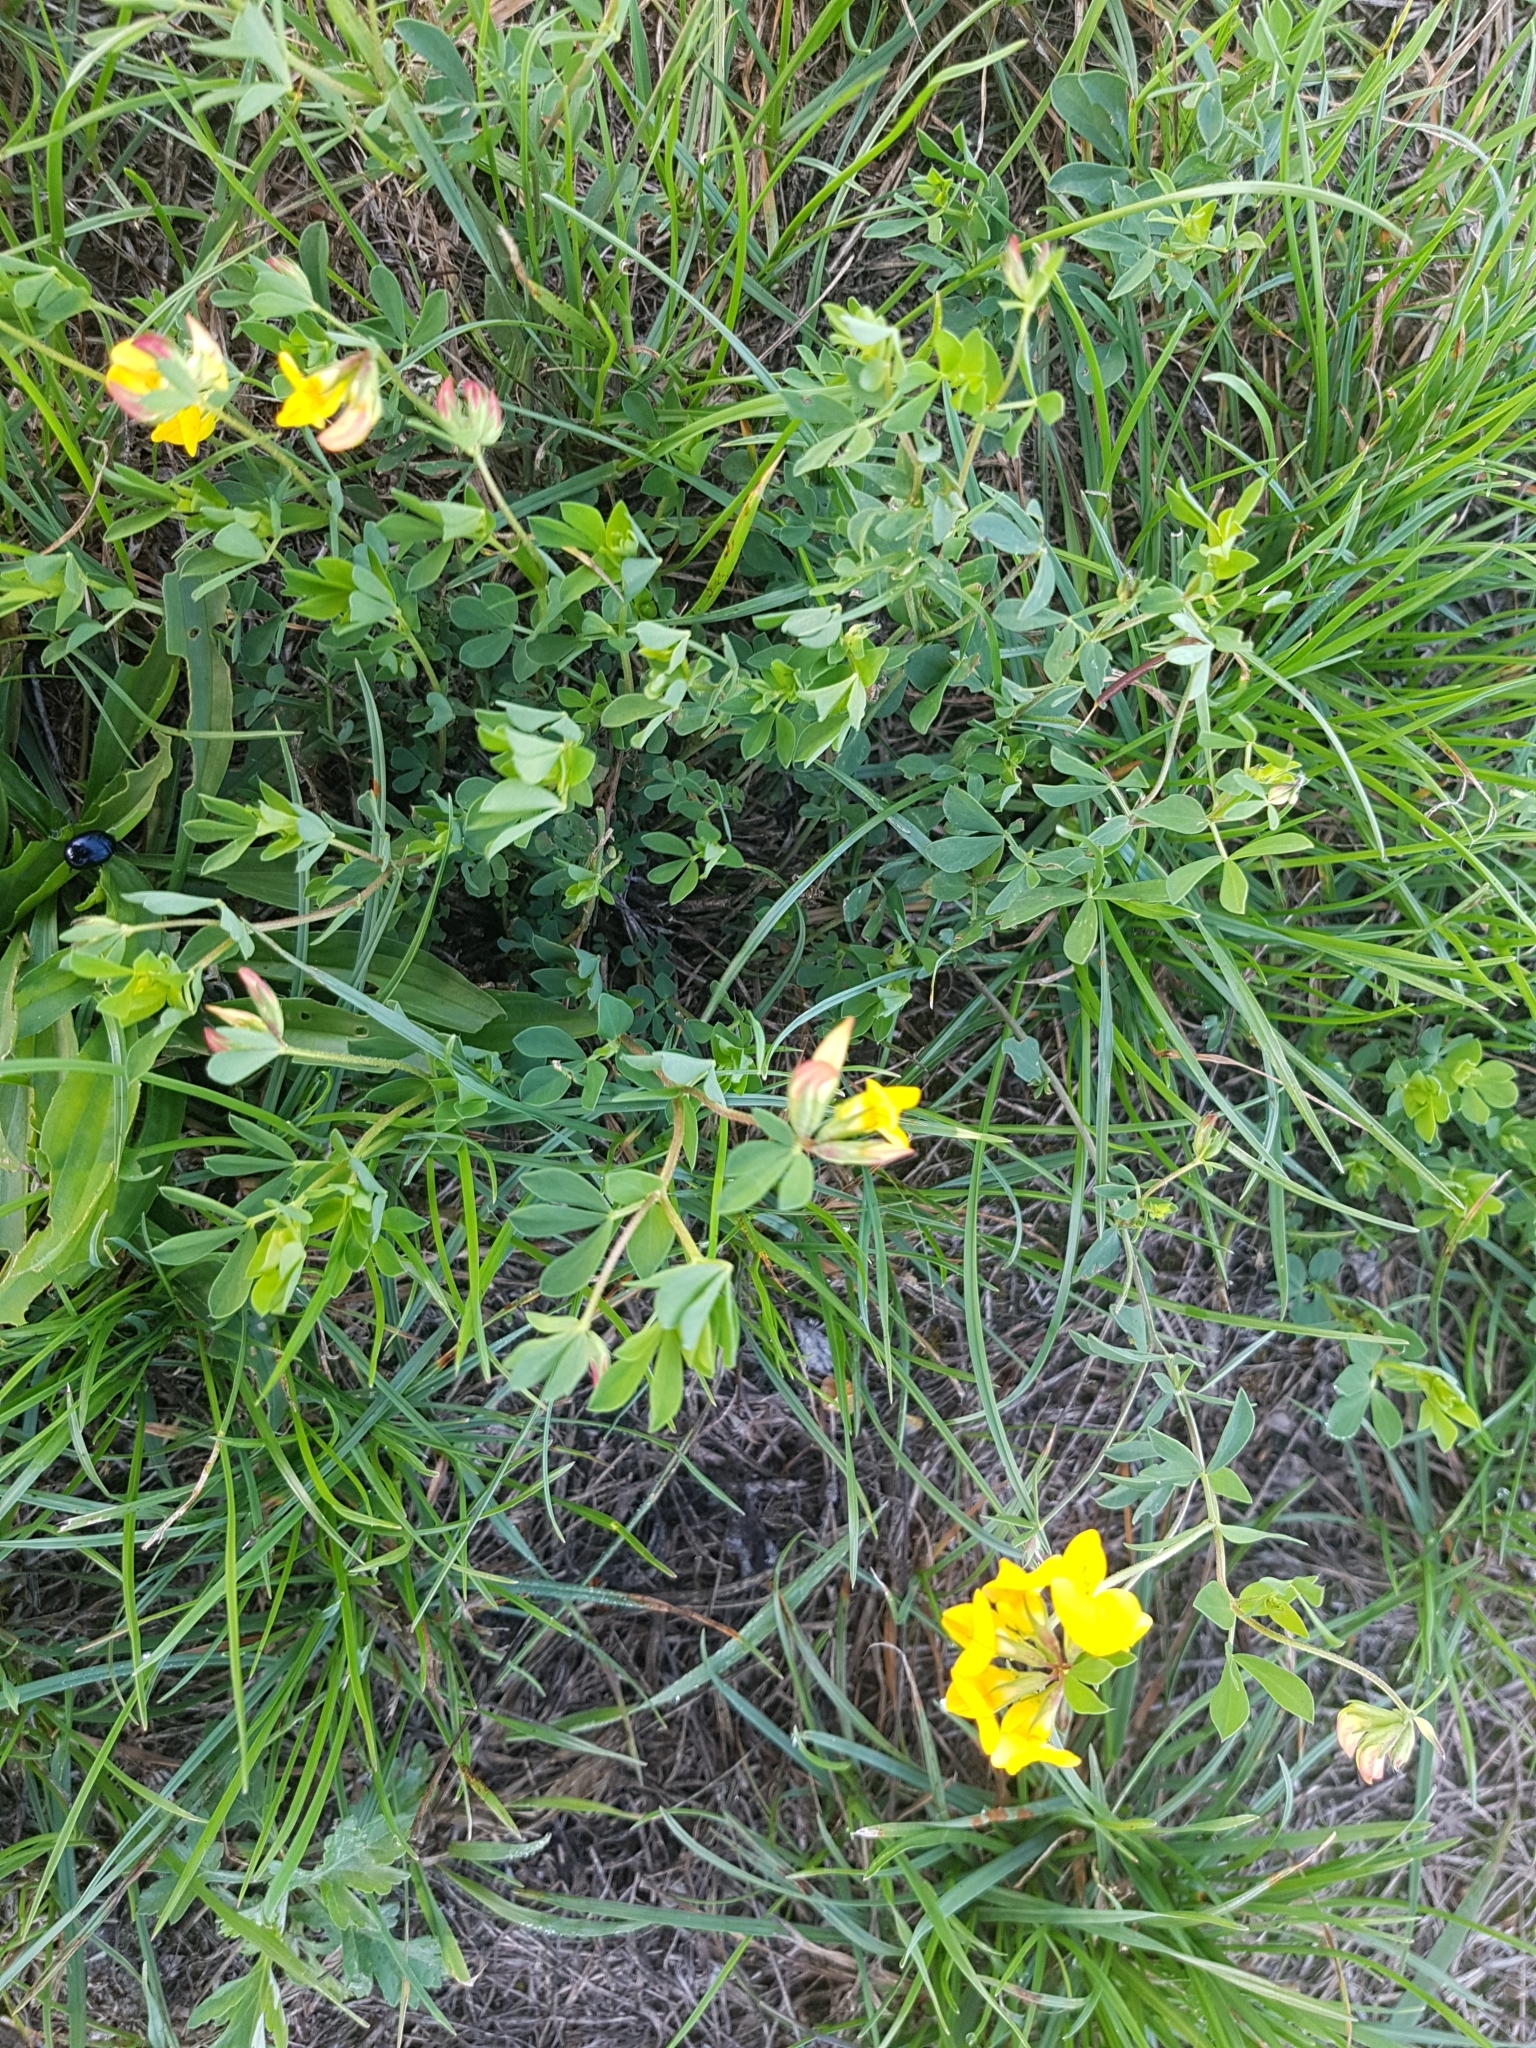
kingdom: Plantae
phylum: Tracheophyta
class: Magnoliopsida
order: Fabales
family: Fabaceae
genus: Lotus
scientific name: Lotus corniculatus
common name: Common bird's-foot-trefoil
